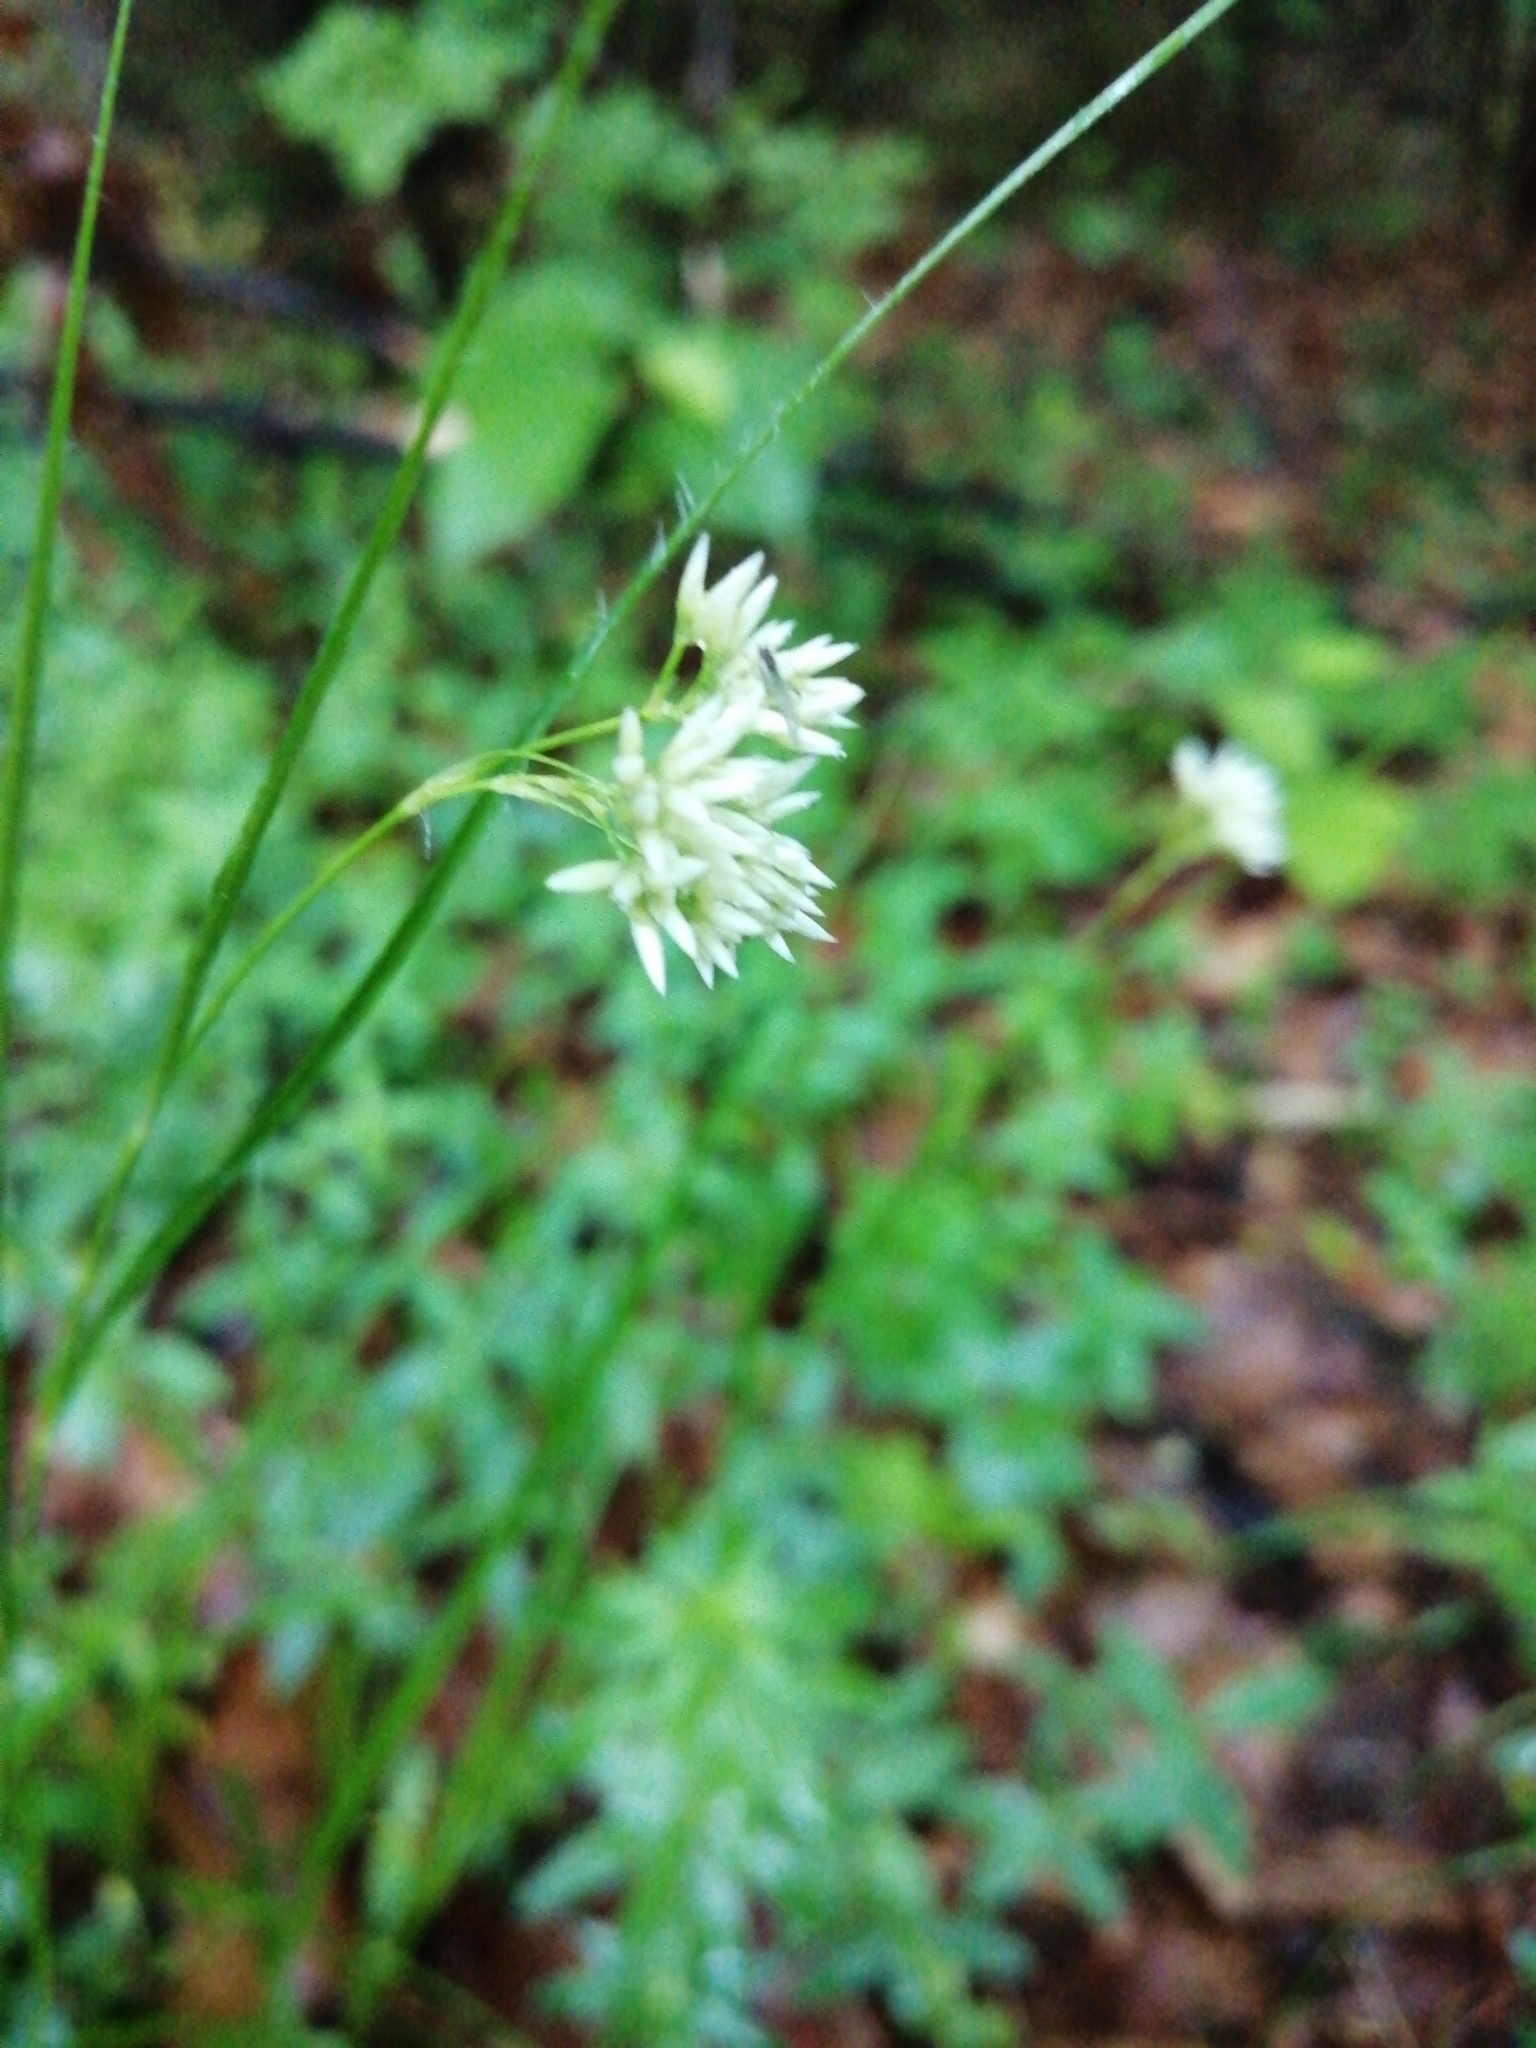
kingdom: Plantae
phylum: Tracheophyta
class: Liliopsida
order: Poales
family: Juncaceae
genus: Luzula
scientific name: Luzula nivea
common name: Snow-white wood-rush
